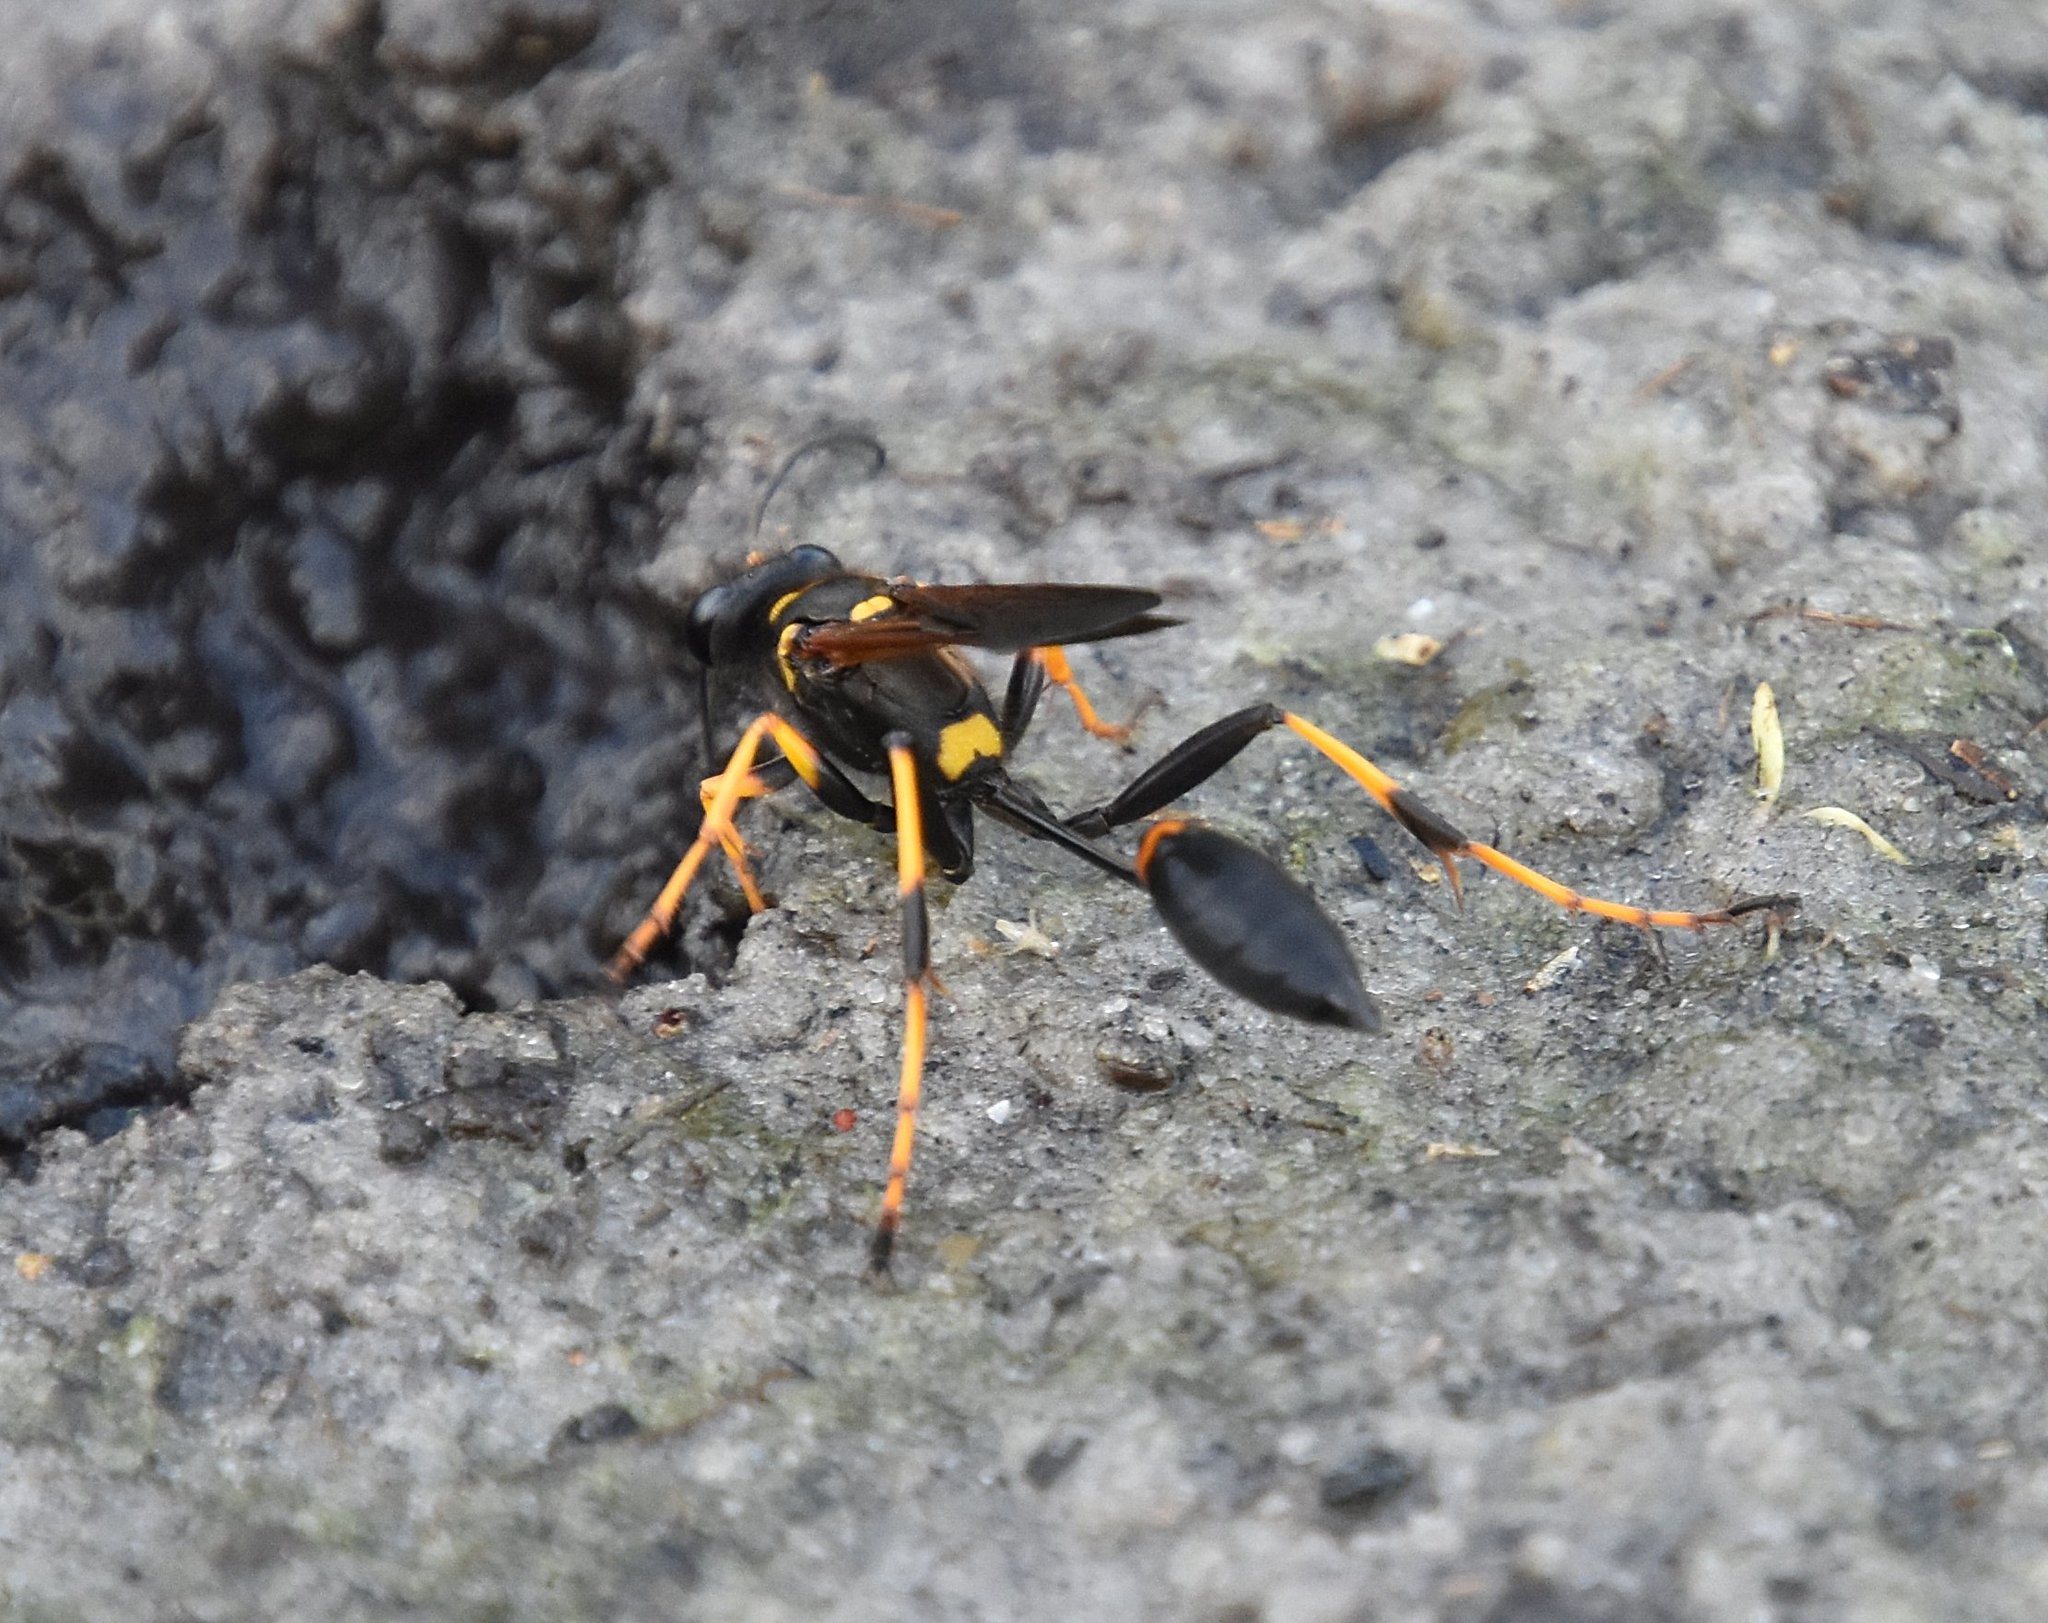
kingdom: Animalia
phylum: Arthropoda
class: Insecta
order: Hymenoptera
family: Sphecidae
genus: Sceliphron
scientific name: Sceliphron caementarium
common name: Mud dauber
